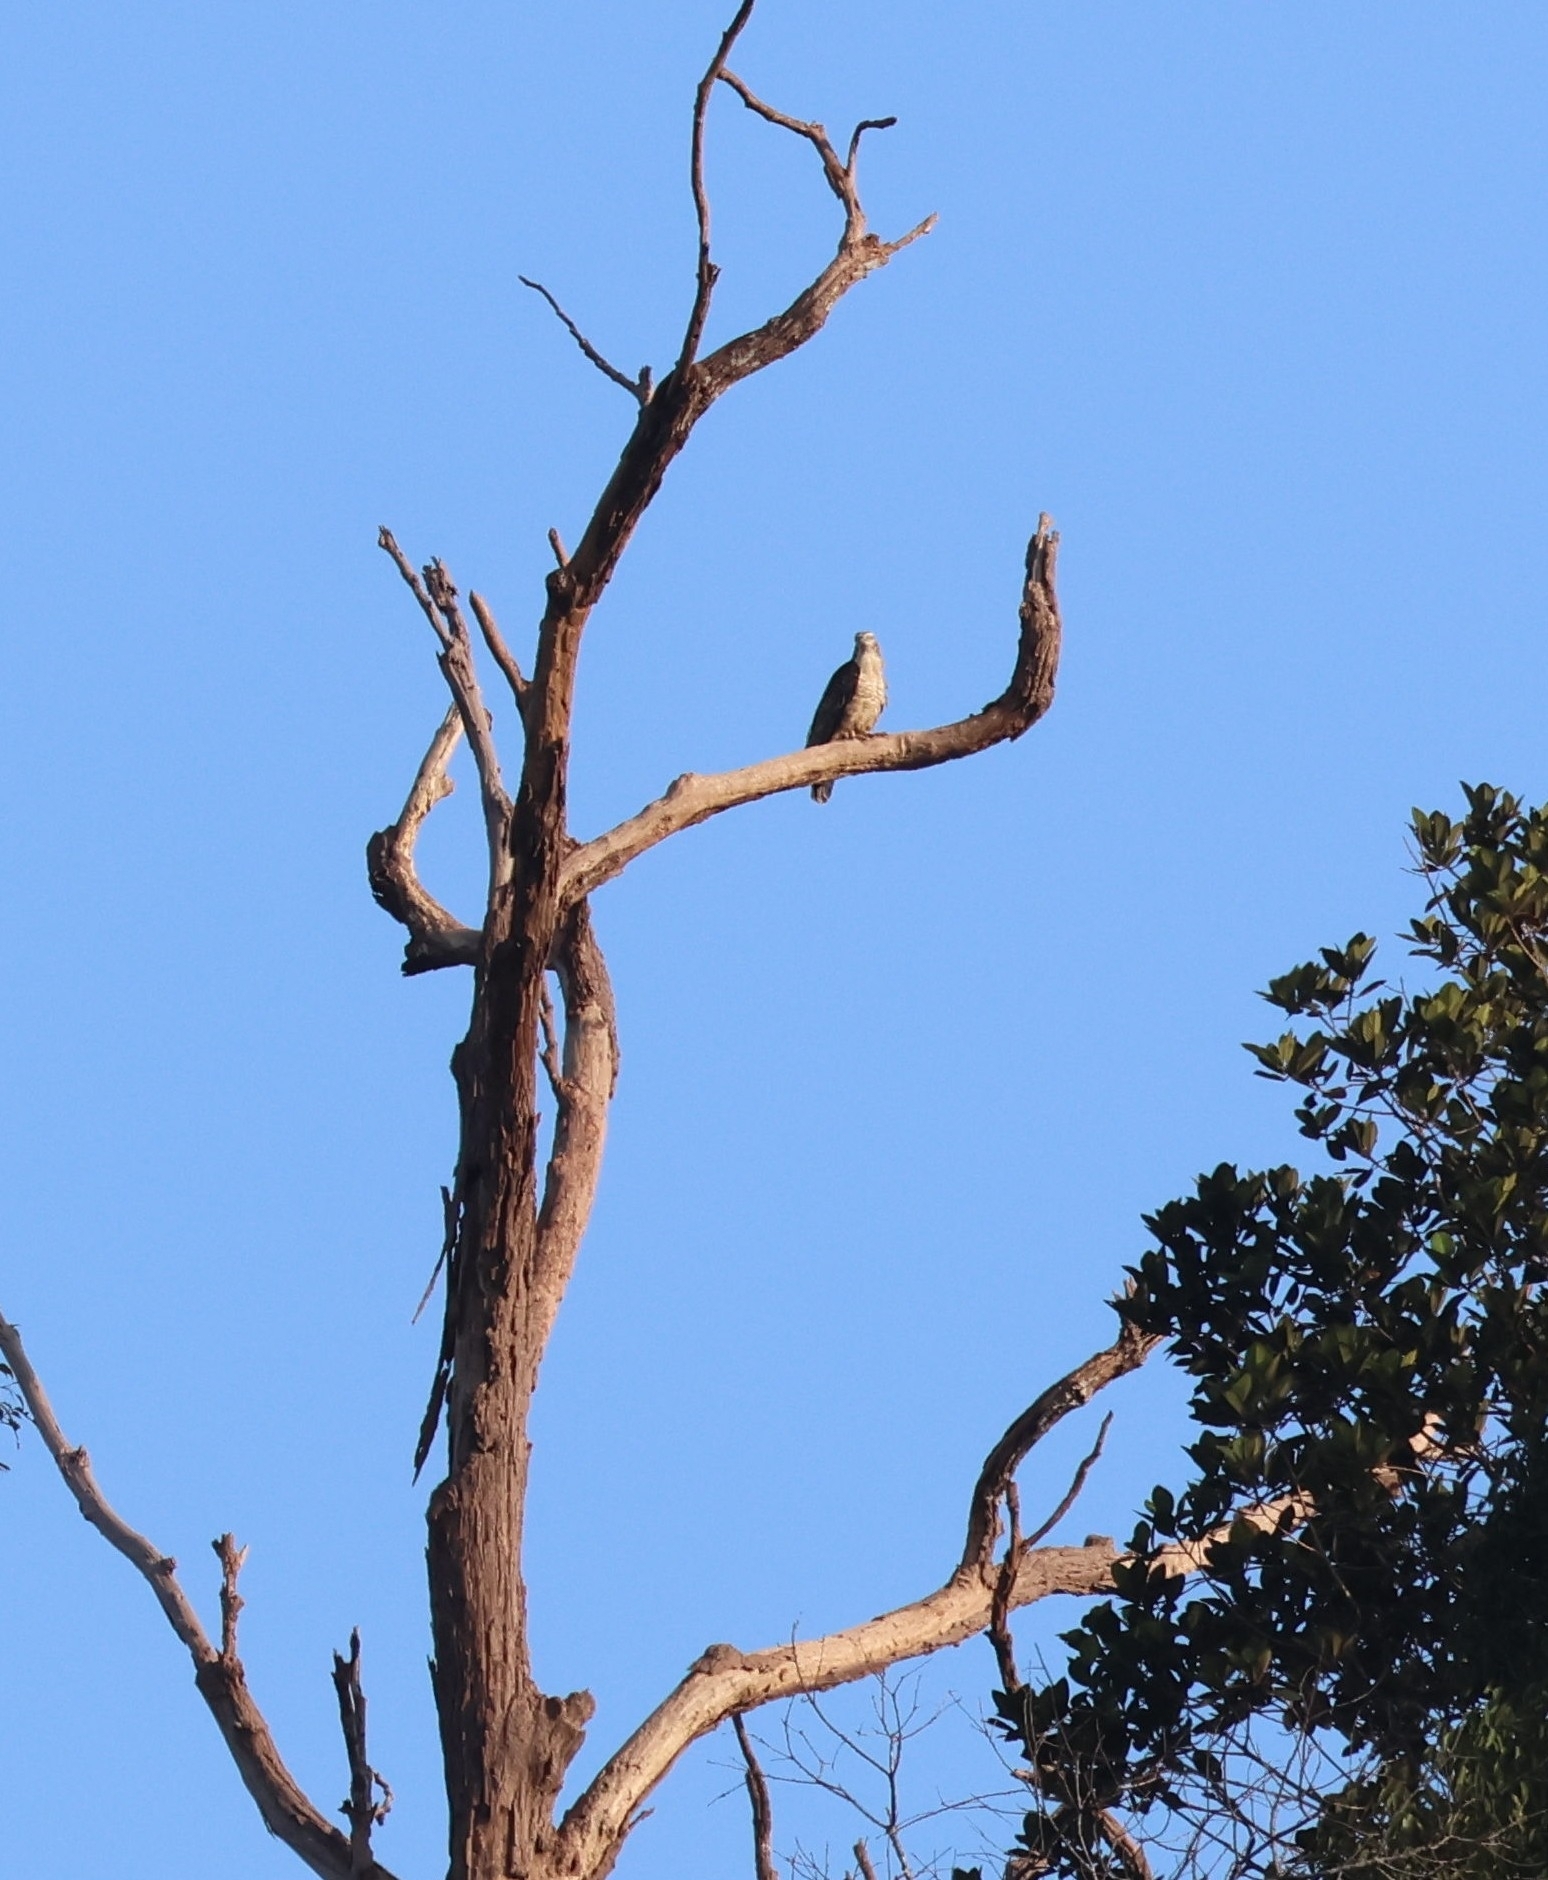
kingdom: Animalia
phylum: Chordata
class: Aves
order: Accipitriformes
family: Accipitridae
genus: Pernis
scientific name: Pernis ptilorhynchus
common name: Crested honey buzzard
